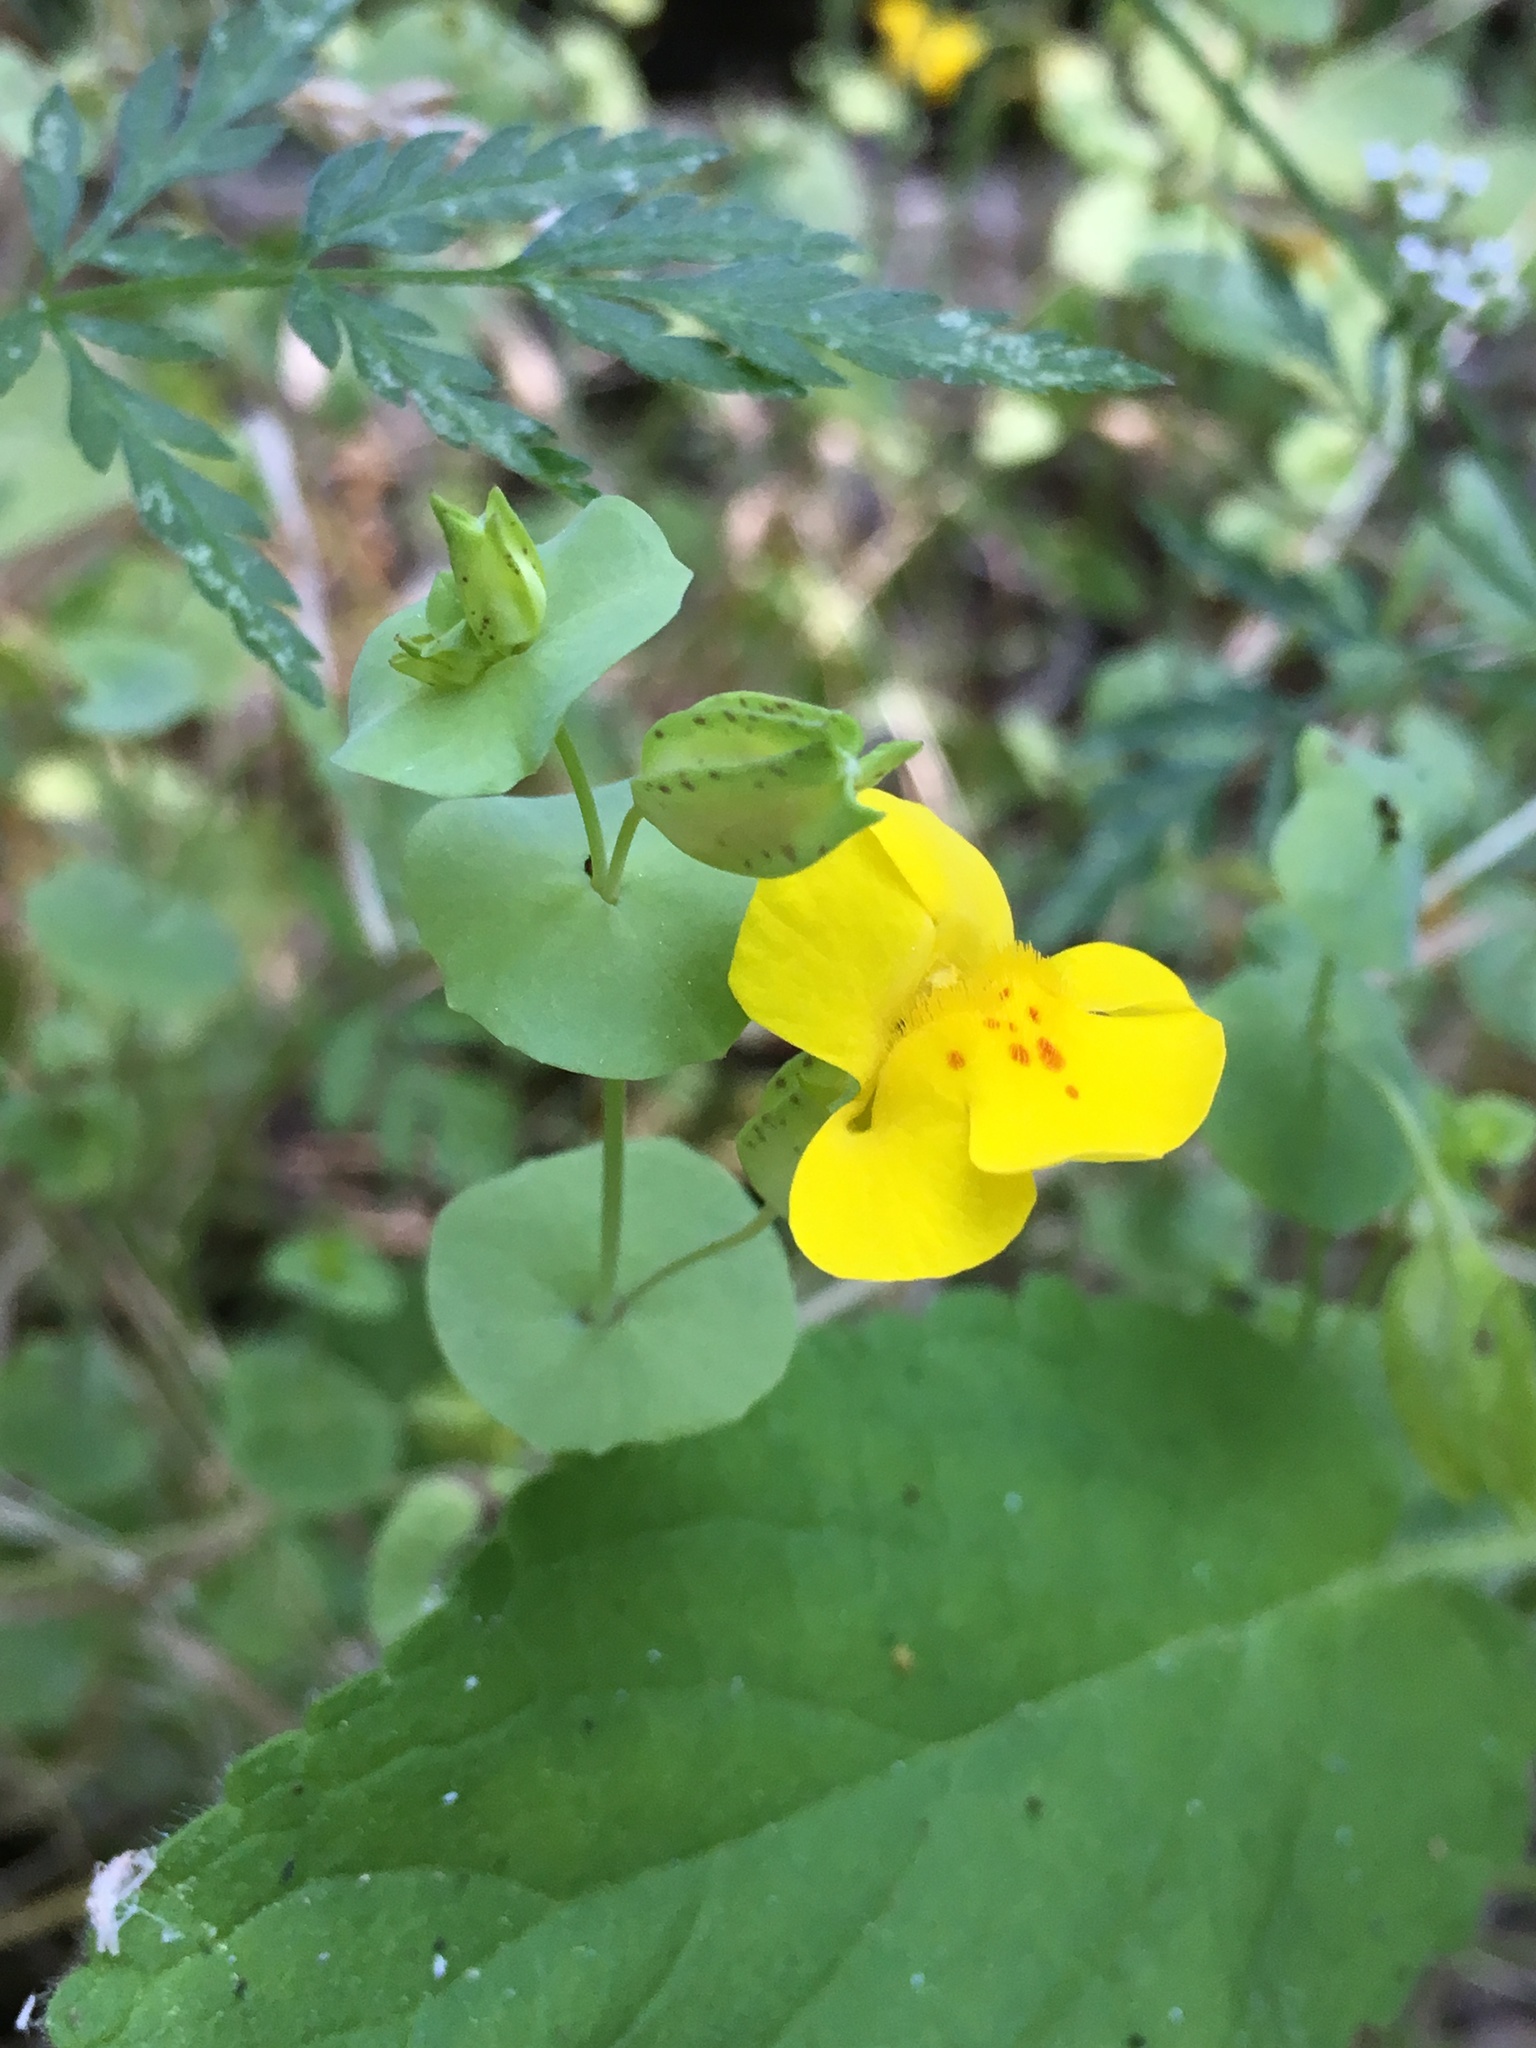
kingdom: Plantae
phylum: Tracheophyta
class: Magnoliopsida
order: Lamiales
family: Phrymaceae
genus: Erythranthe
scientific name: Erythranthe glaucescens
